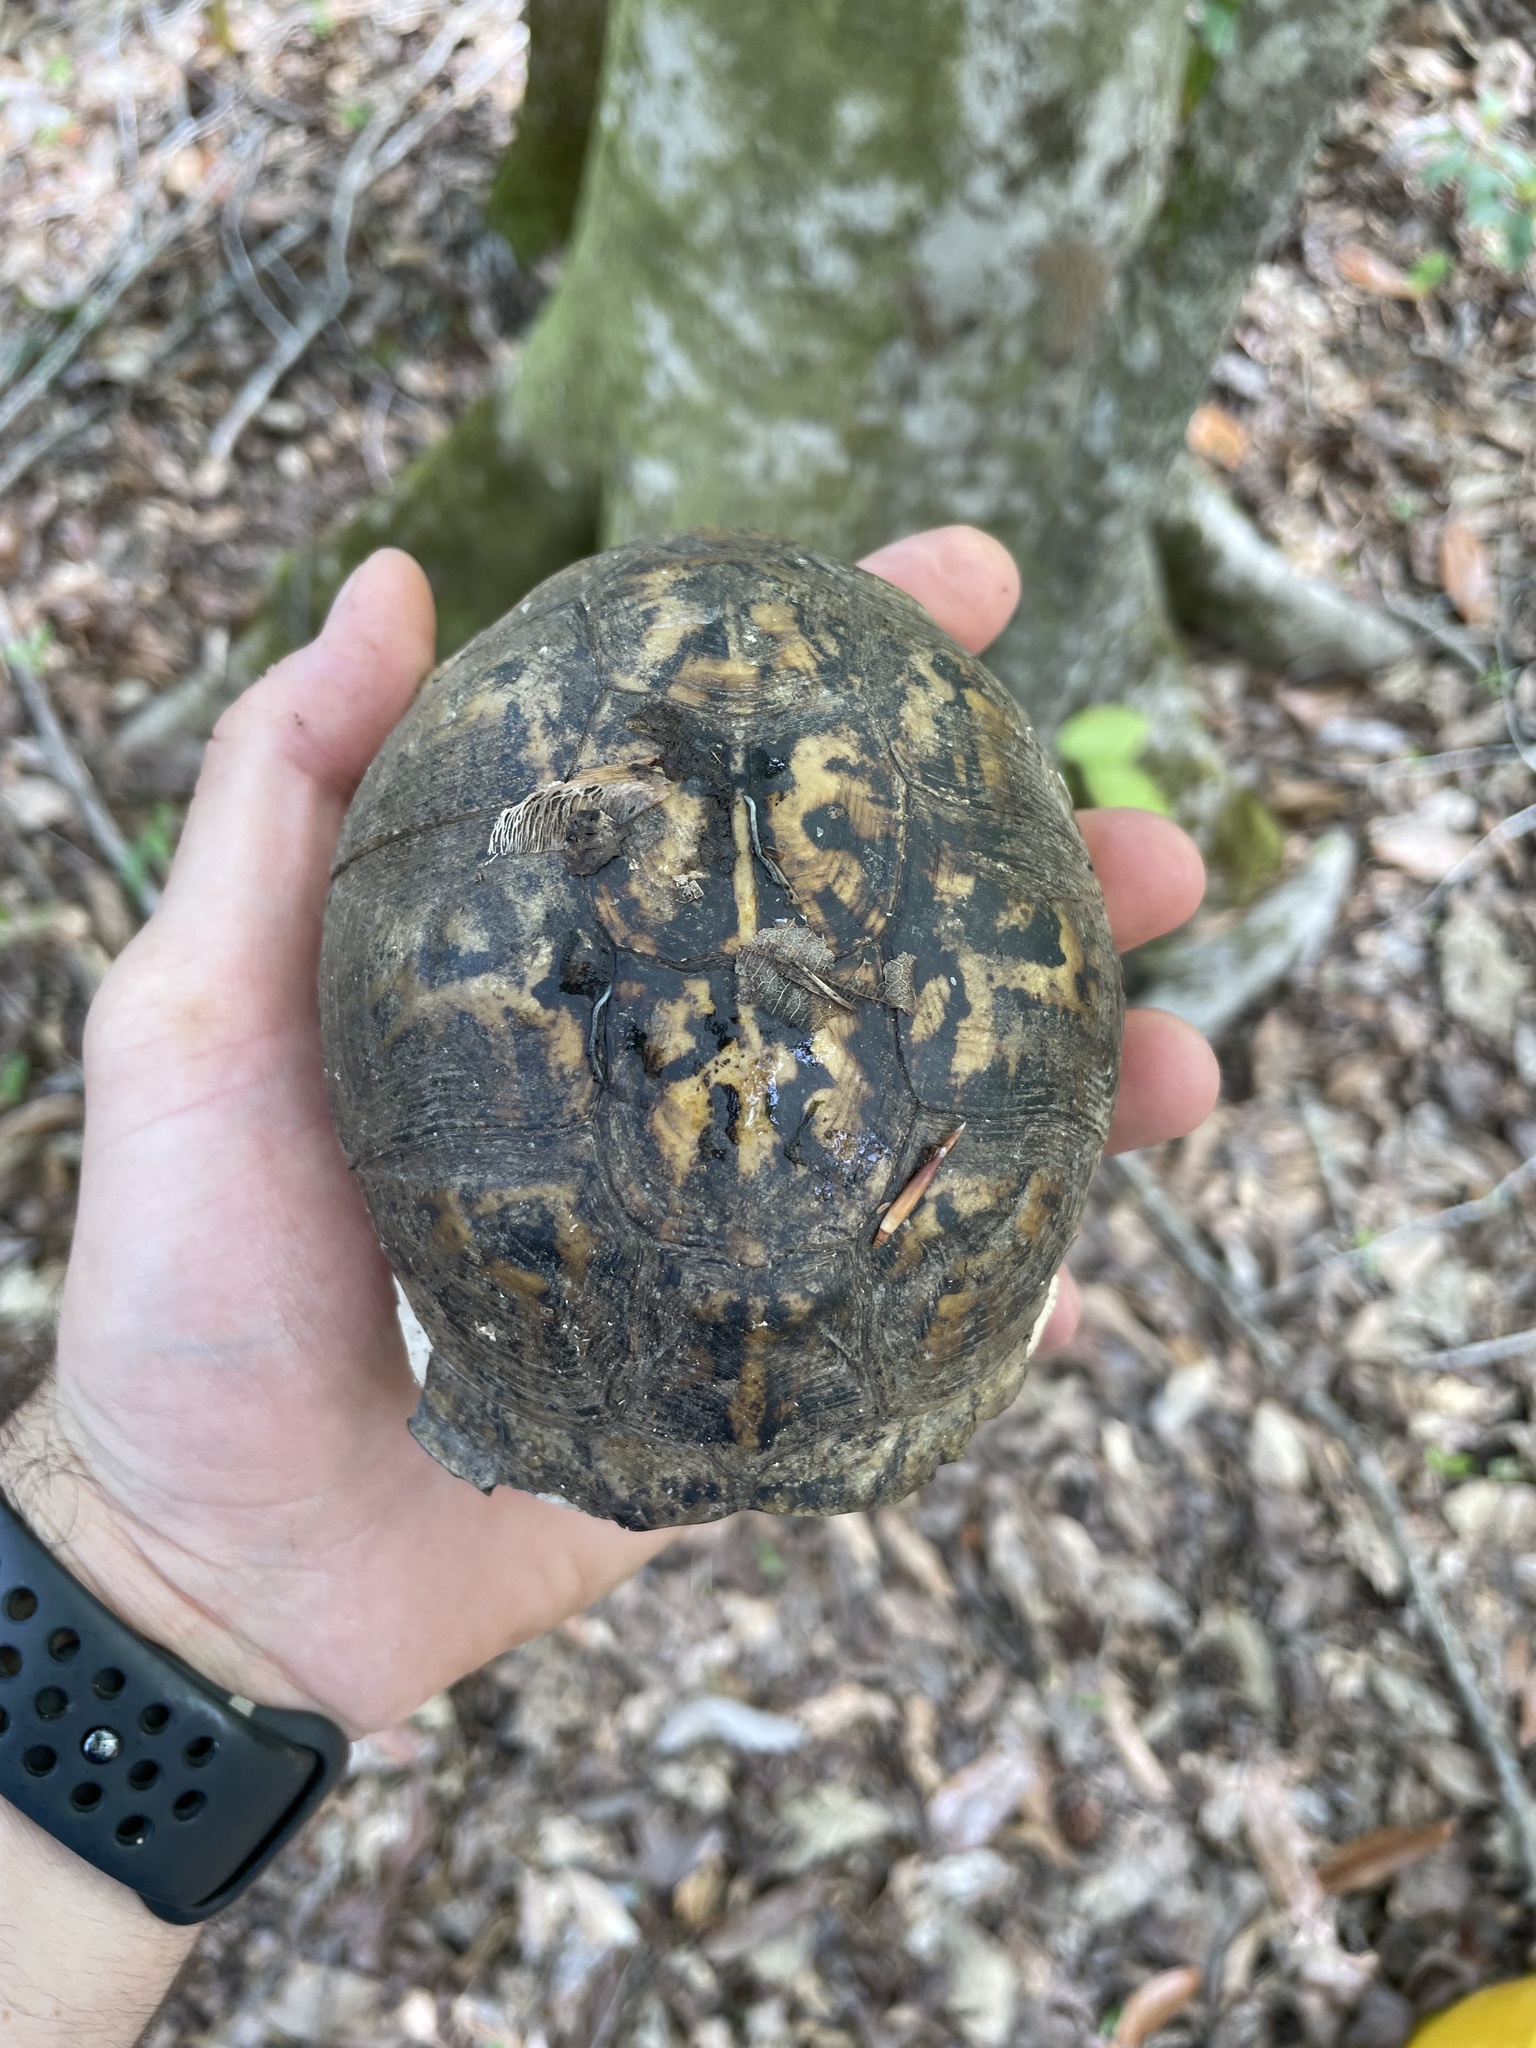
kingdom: Animalia
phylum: Chordata
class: Testudines
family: Emydidae
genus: Terrapene
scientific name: Terrapene carolina
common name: Common box turtle
